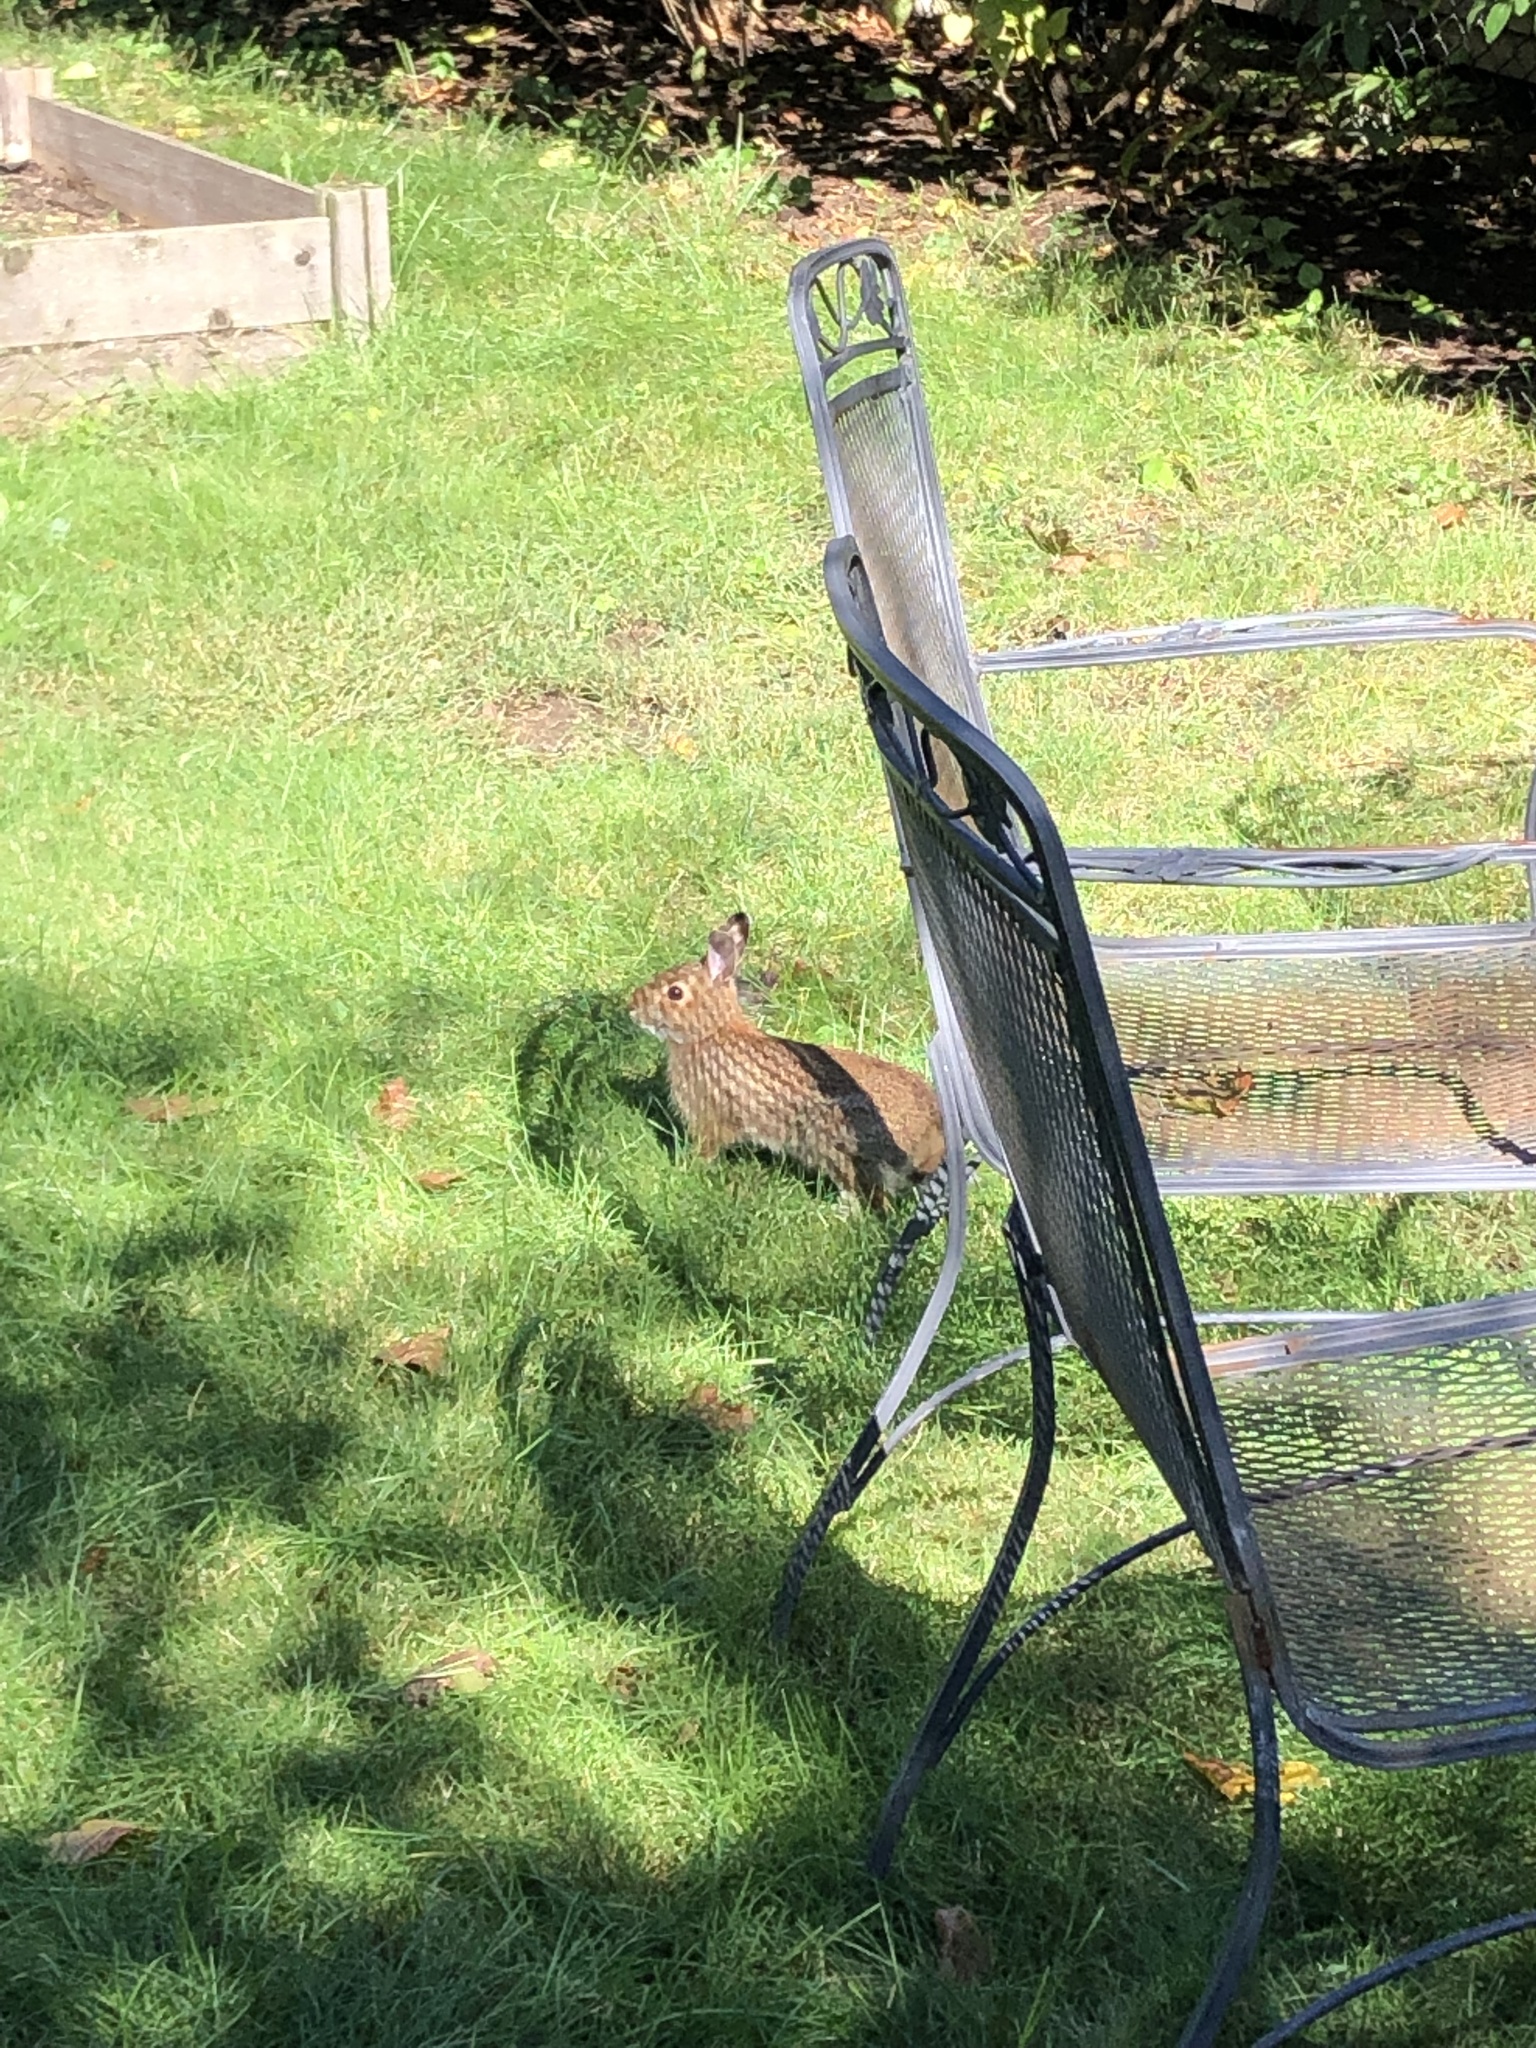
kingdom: Animalia
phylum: Chordata
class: Mammalia
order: Lagomorpha
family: Leporidae
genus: Sylvilagus
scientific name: Sylvilagus floridanus
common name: Eastern cottontail
